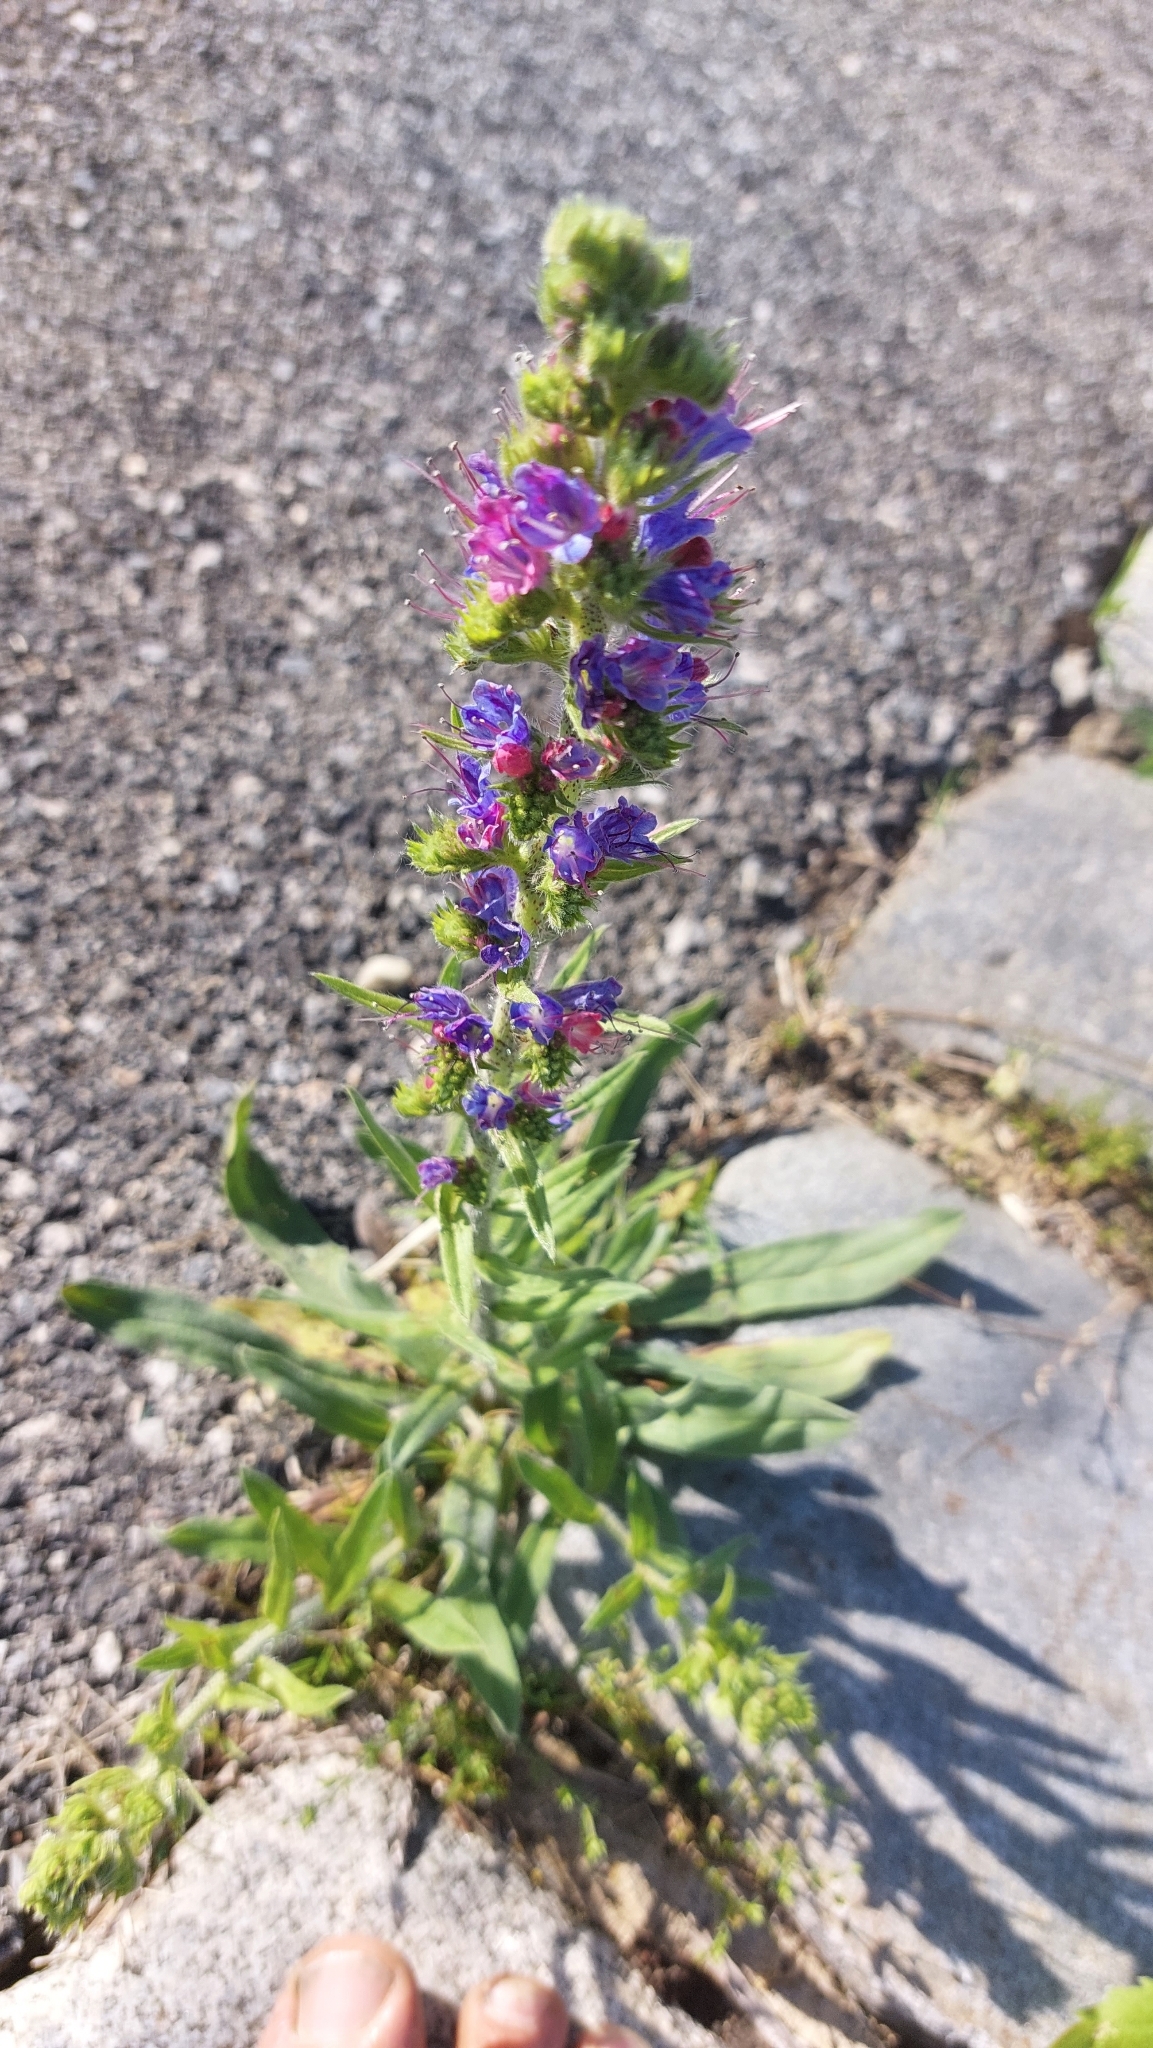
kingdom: Plantae
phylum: Tracheophyta
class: Magnoliopsida
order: Boraginales
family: Boraginaceae
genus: Echium
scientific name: Echium vulgare
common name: Common viper's bugloss
